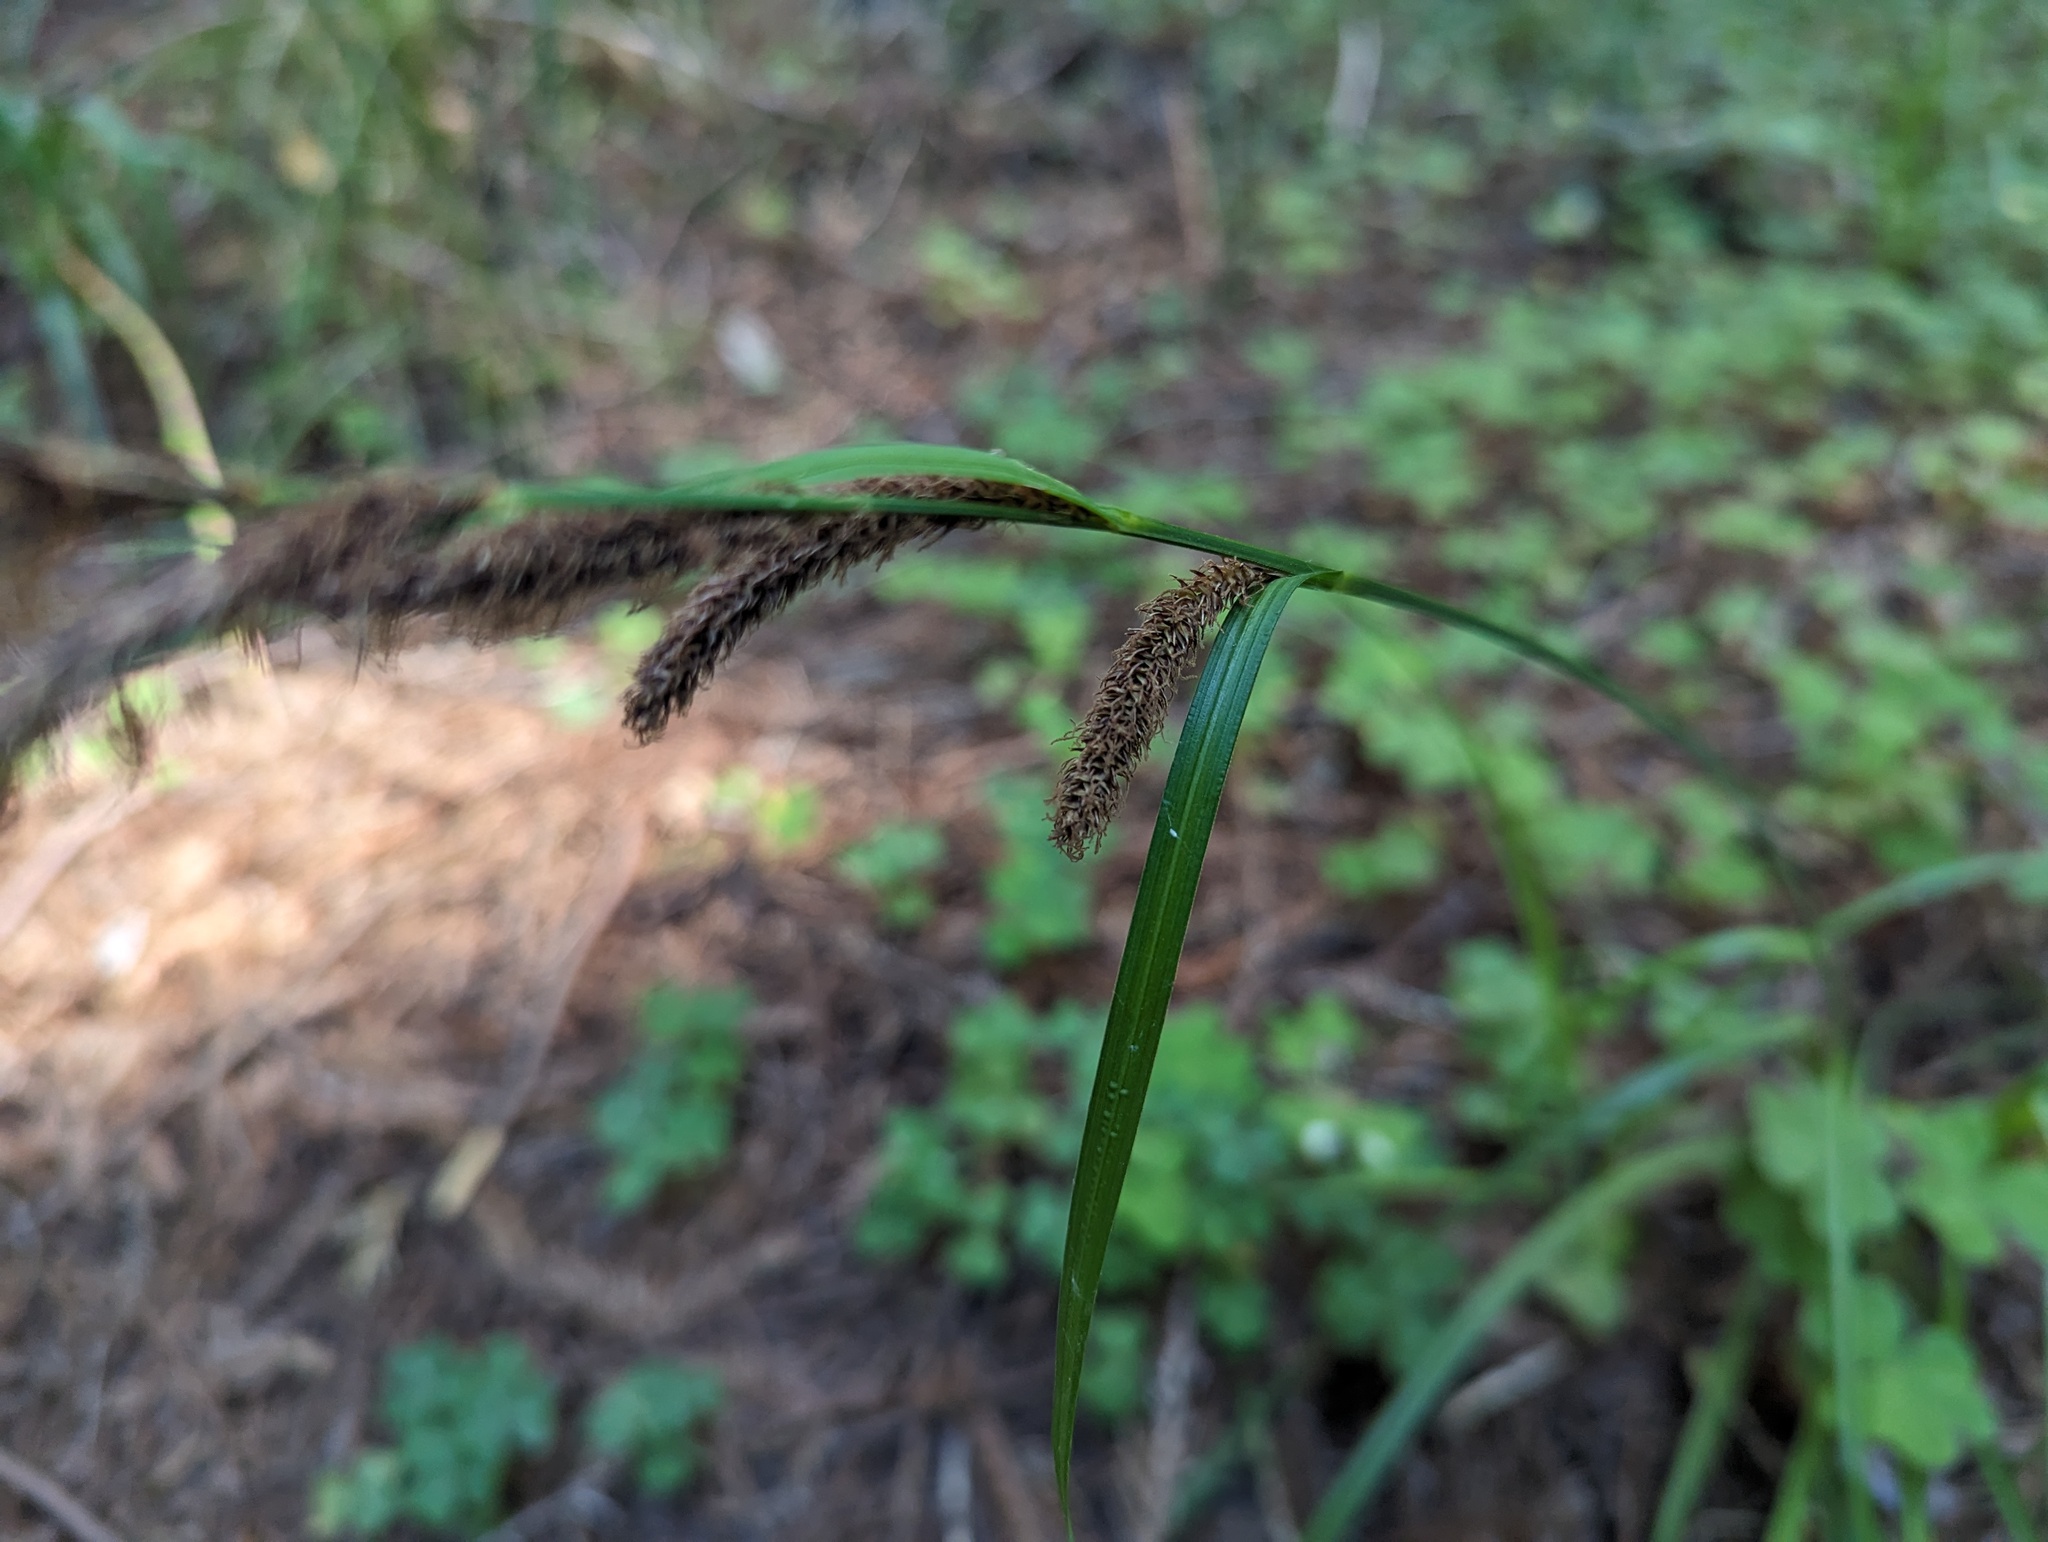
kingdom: Plantae
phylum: Tracheophyta
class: Liliopsida
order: Poales
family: Cyperaceae
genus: Carex
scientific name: Carex obnupta
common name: Slough sedge
